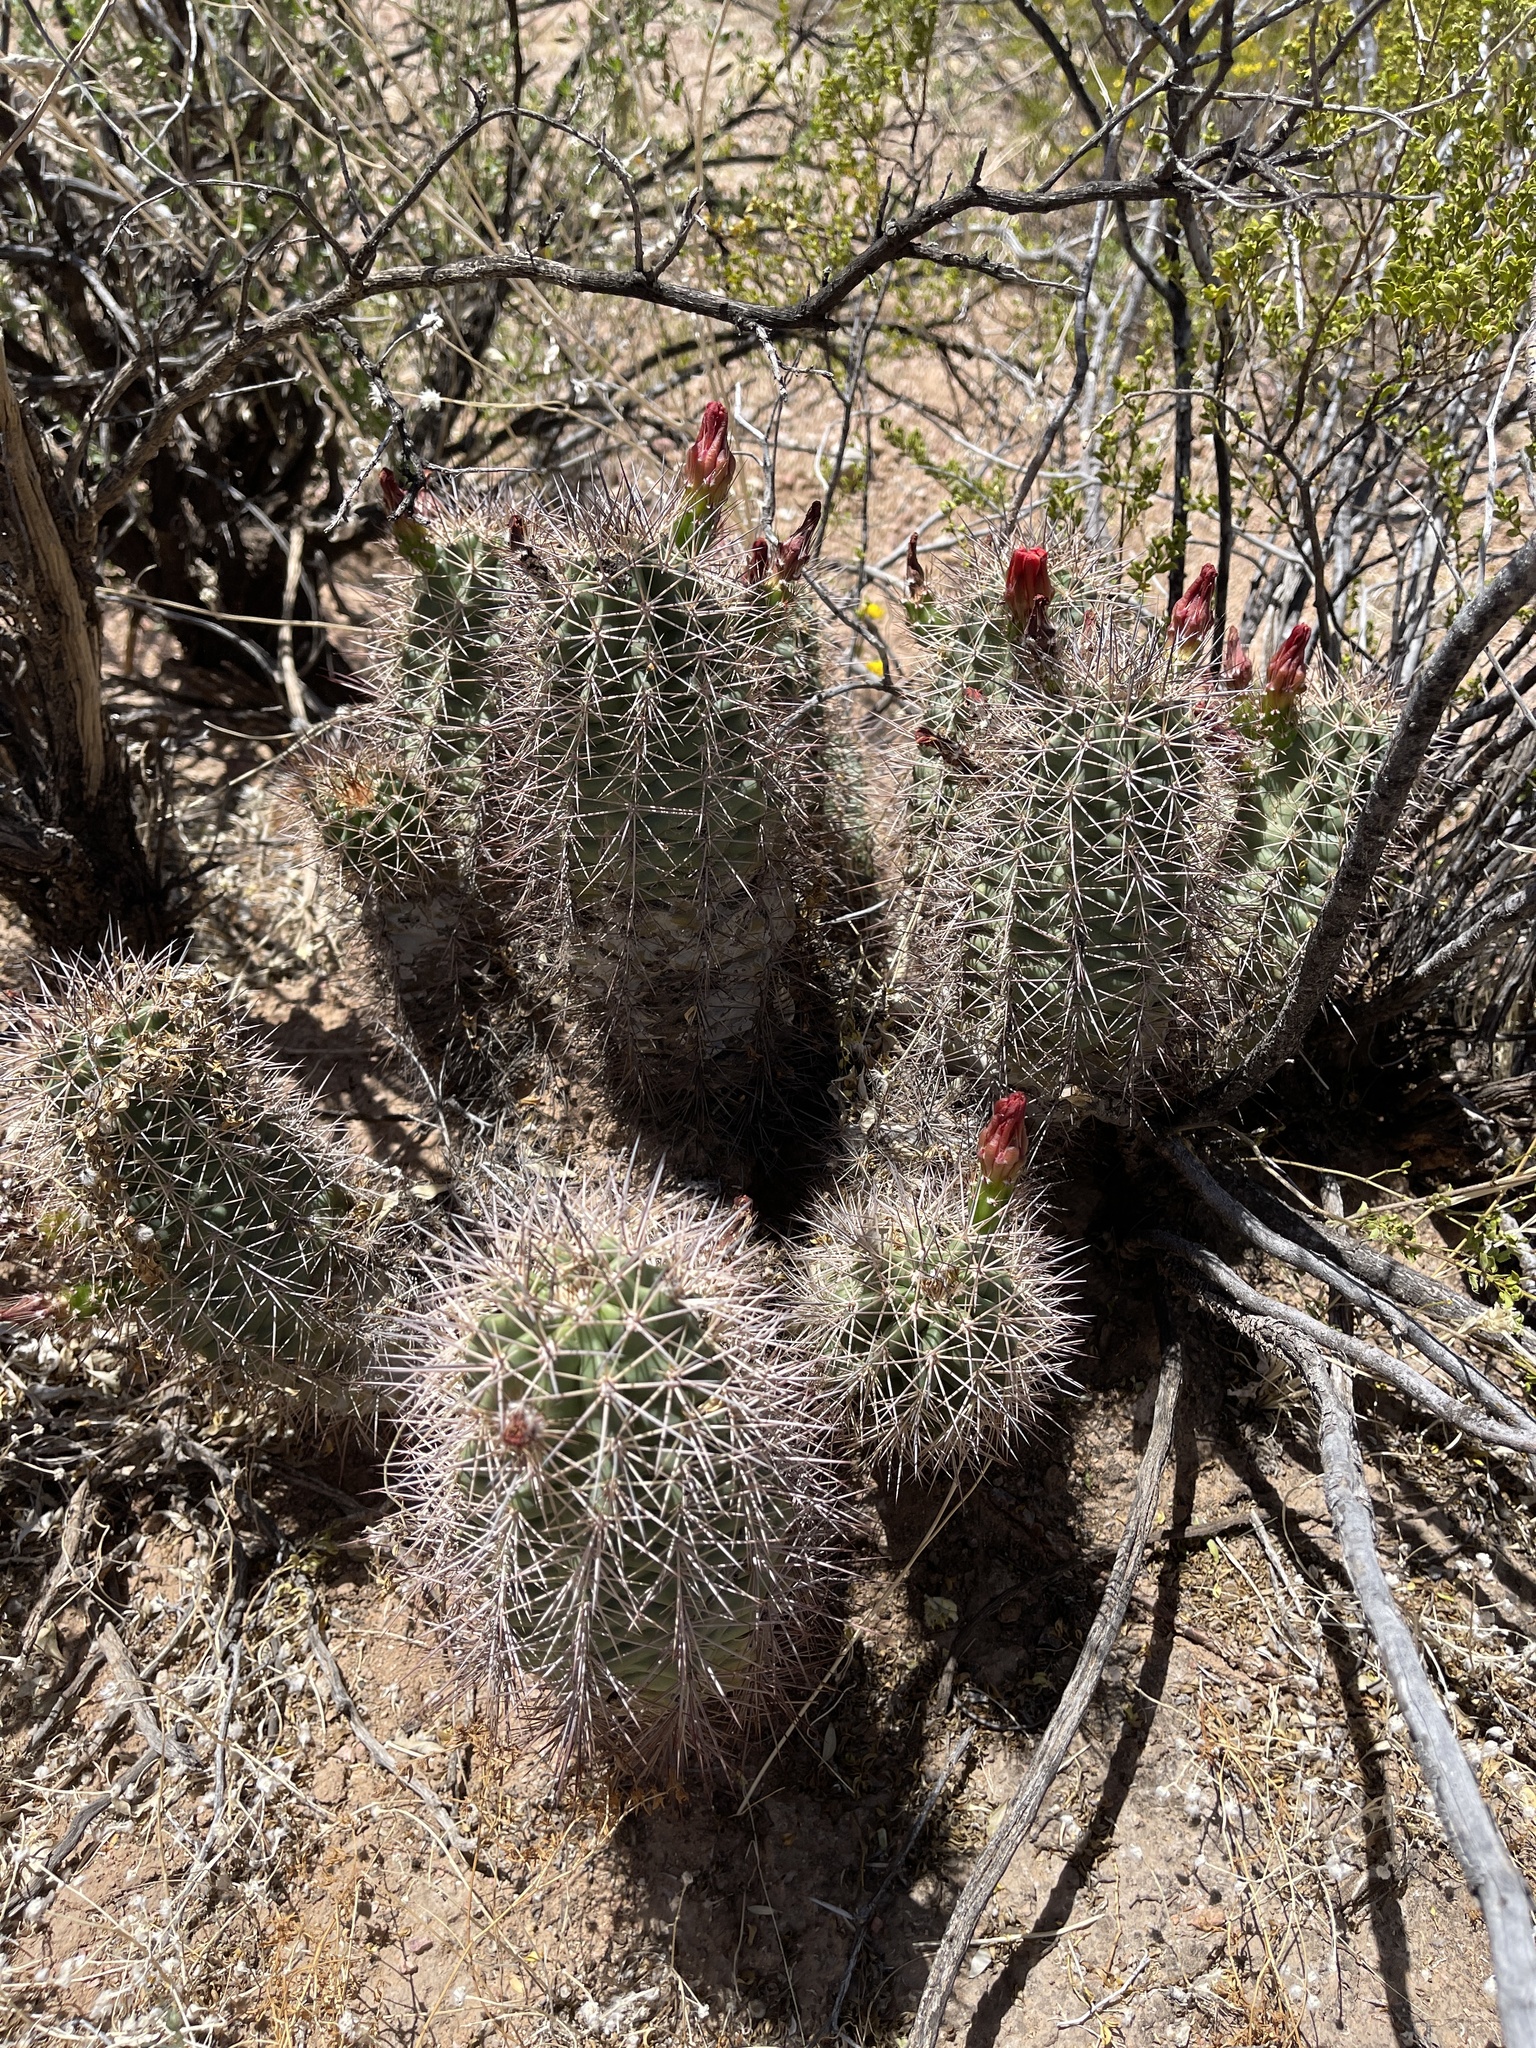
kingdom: Plantae
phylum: Tracheophyta
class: Magnoliopsida
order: Caryophyllales
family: Cactaceae
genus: Echinocereus
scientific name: Echinocereus coccineus
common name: Scarlet hedgehog cactus
